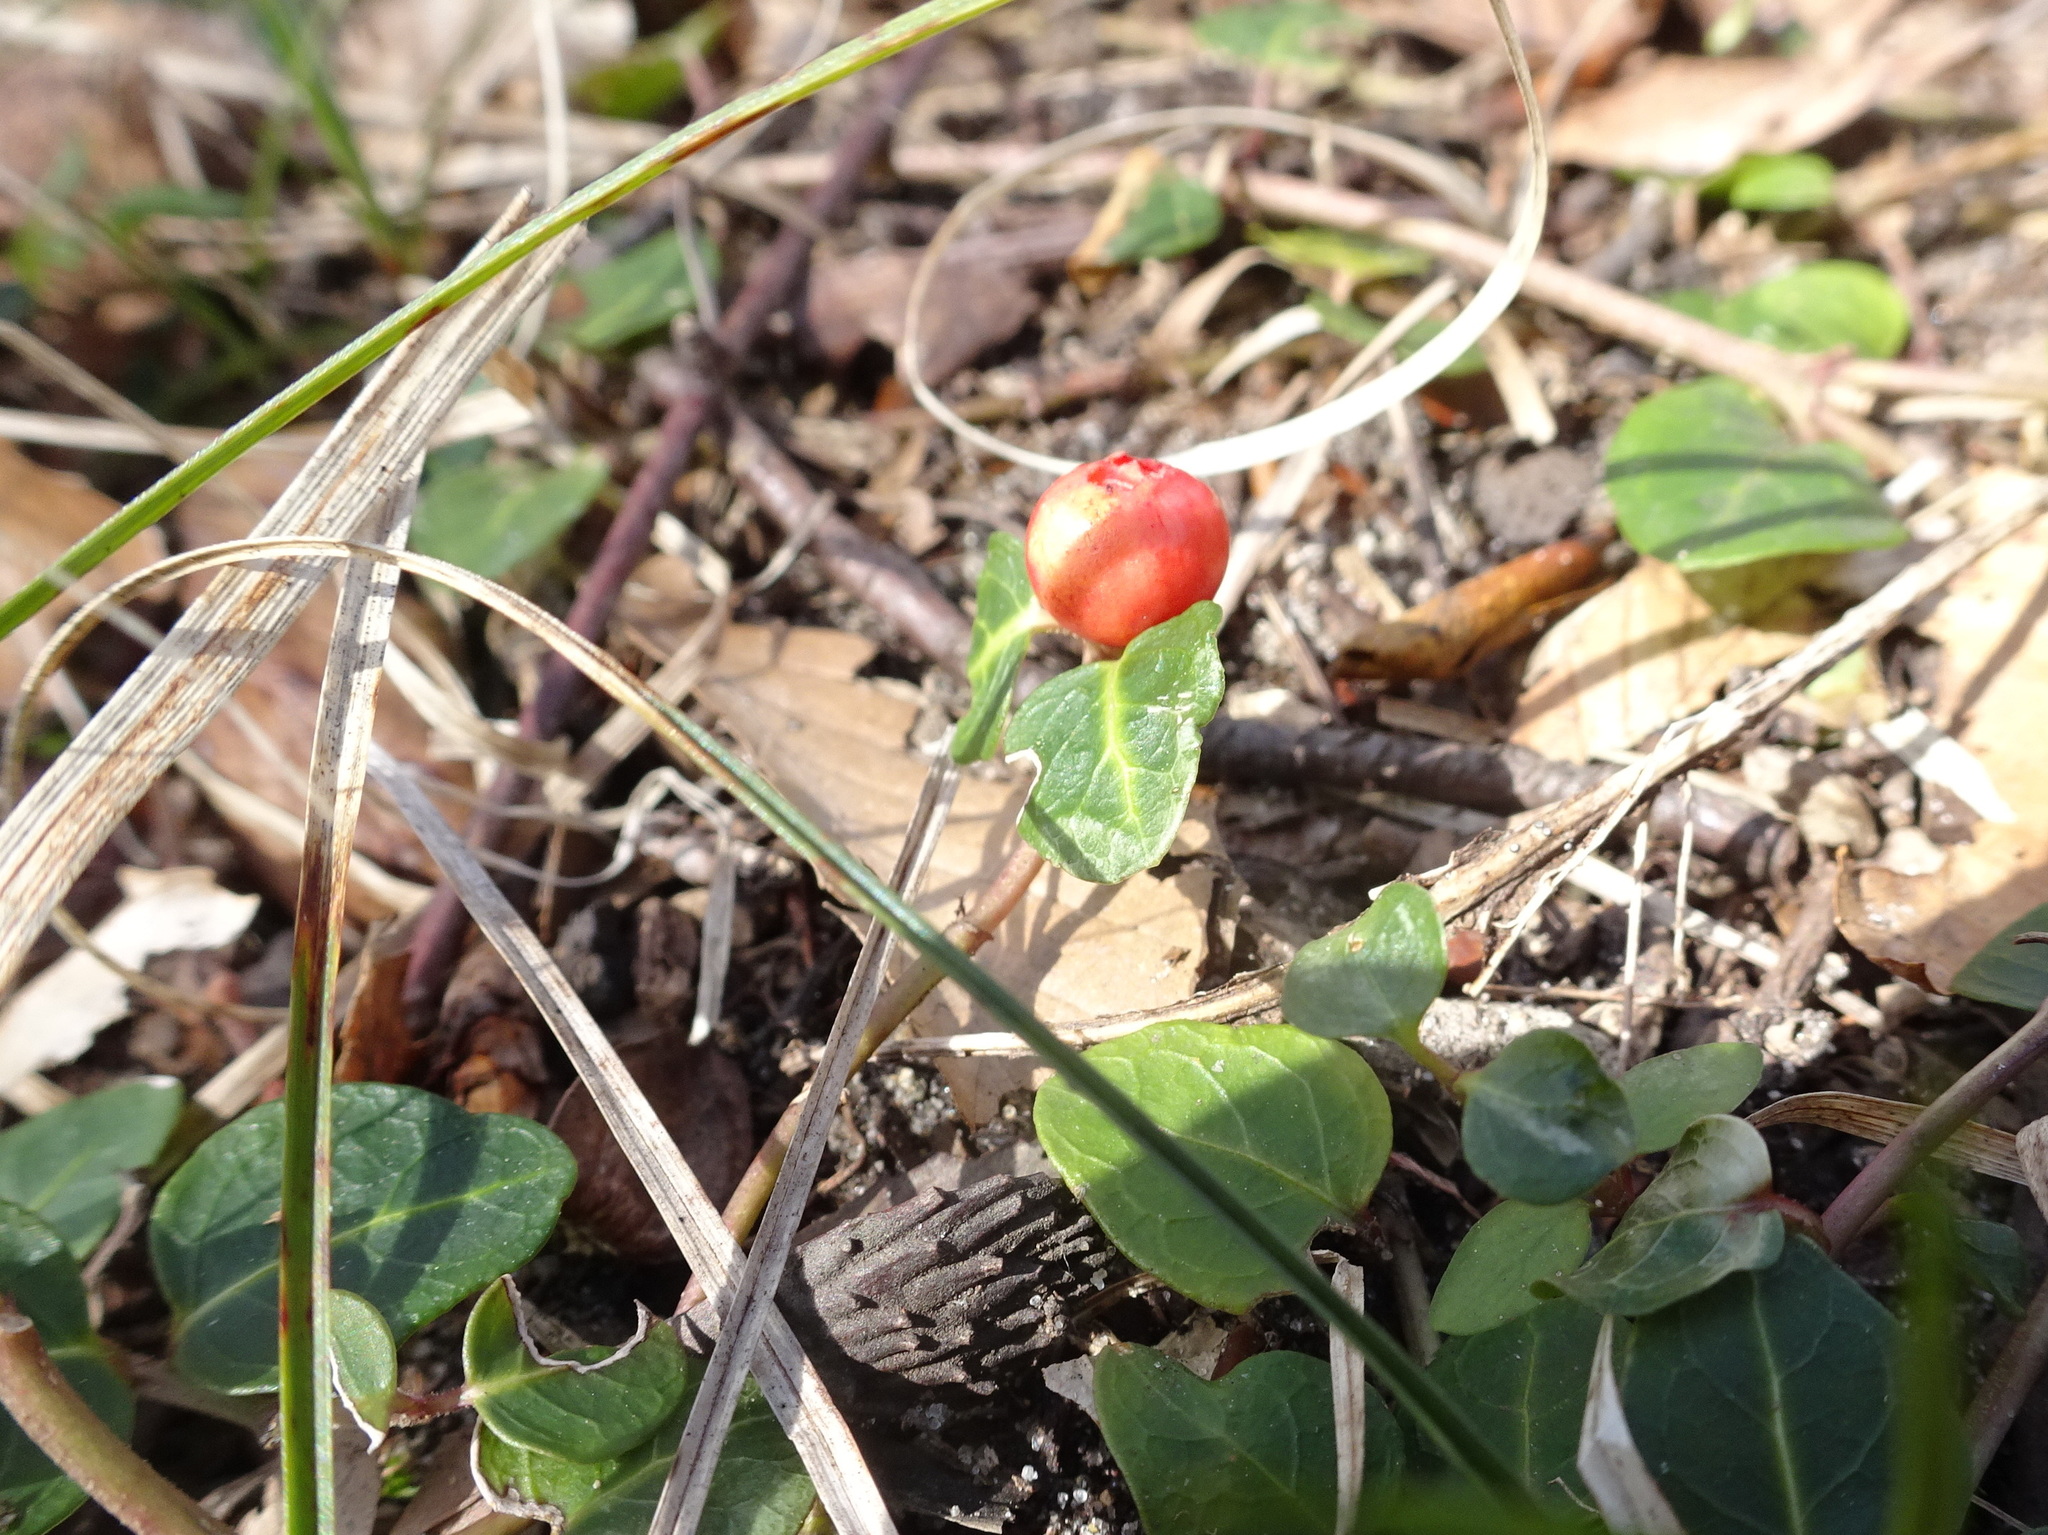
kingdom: Plantae
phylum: Tracheophyta
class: Magnoliopsida
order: Gentianales
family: Rubiaceae
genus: Mitchella
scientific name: Mitchella repens
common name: Partridge-berry
